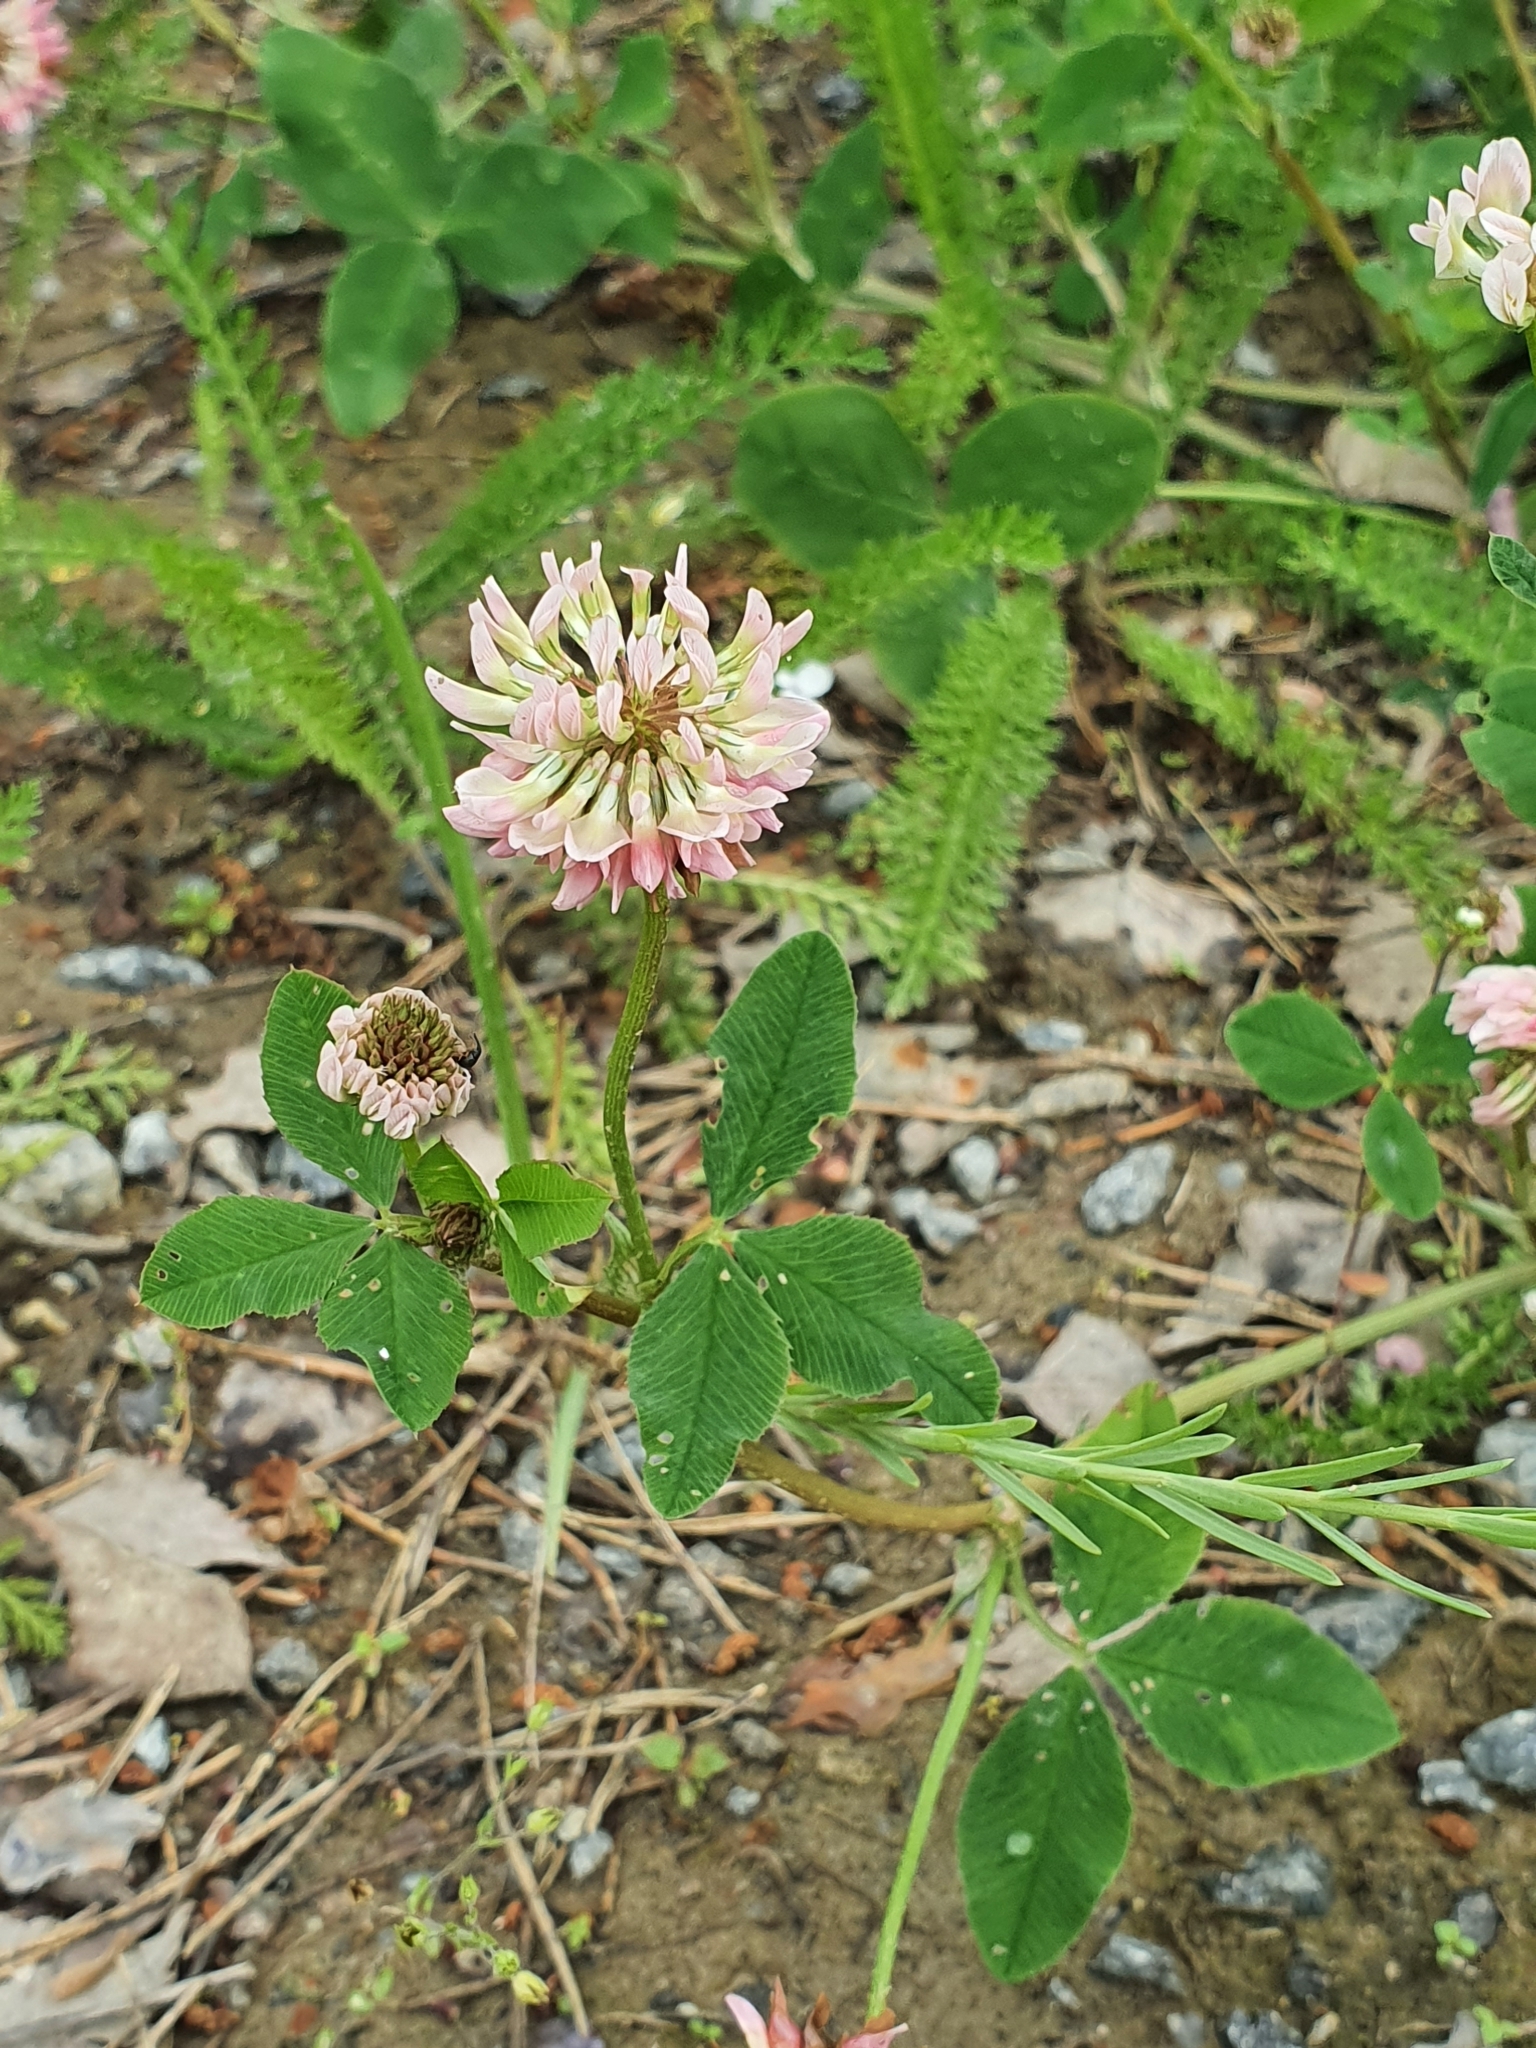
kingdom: Plantae
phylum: Tracheophyta
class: Magnoliopsida
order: Fabales
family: Fabaceae
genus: Trifolium
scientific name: Trifolium hybridum
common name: Alsike clover
